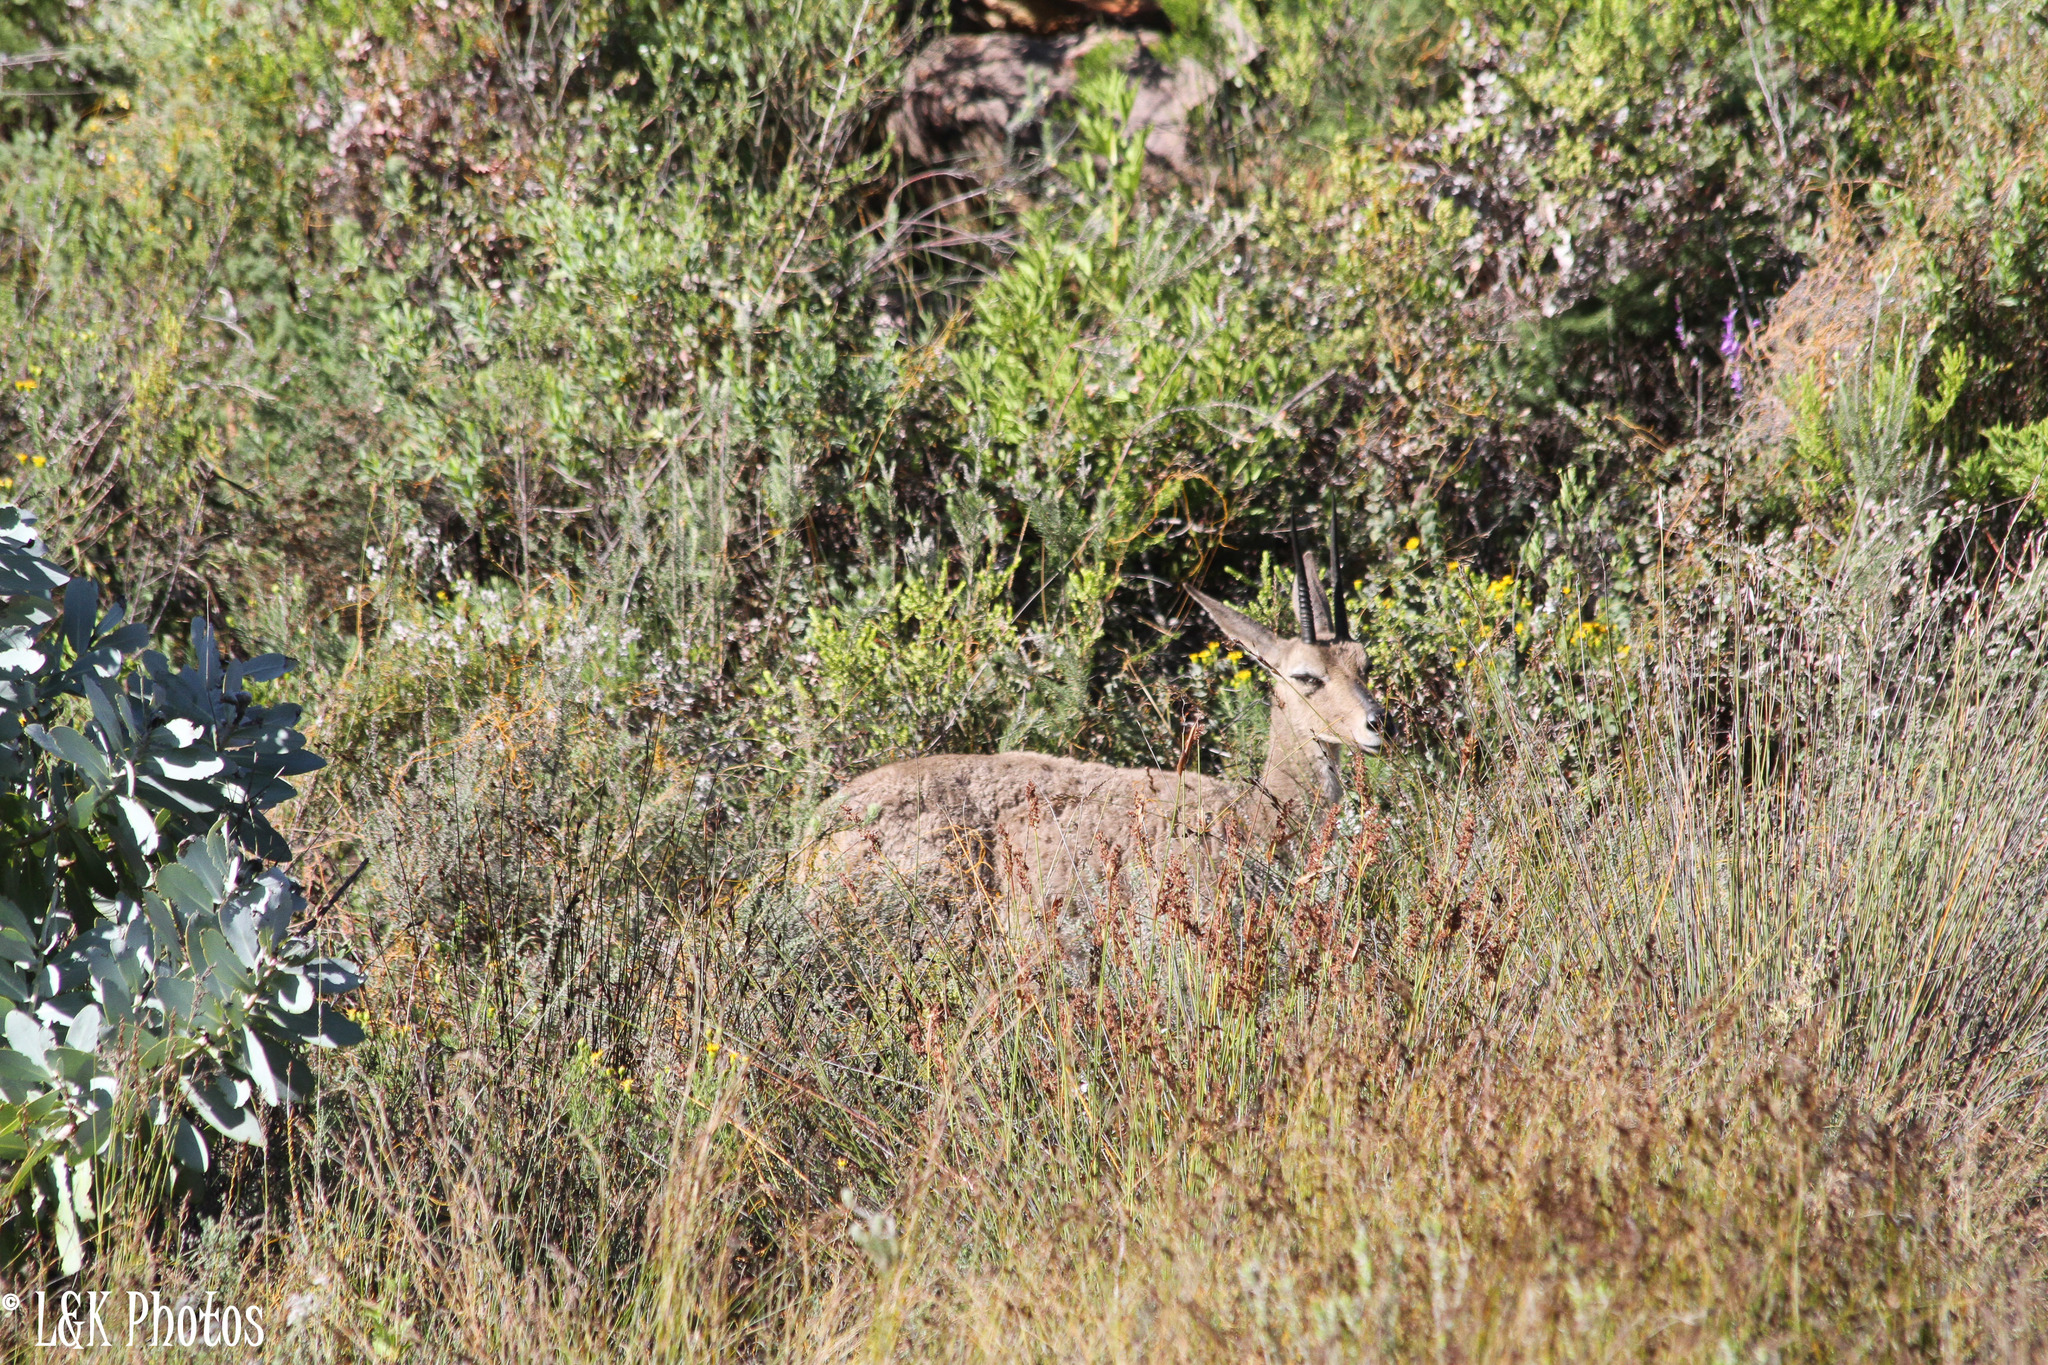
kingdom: Animalia
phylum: Chordata
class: Mammalia
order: Artiodactyla
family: Bovidae
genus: Pelea
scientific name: Pelea capreolus
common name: Common rhebok
